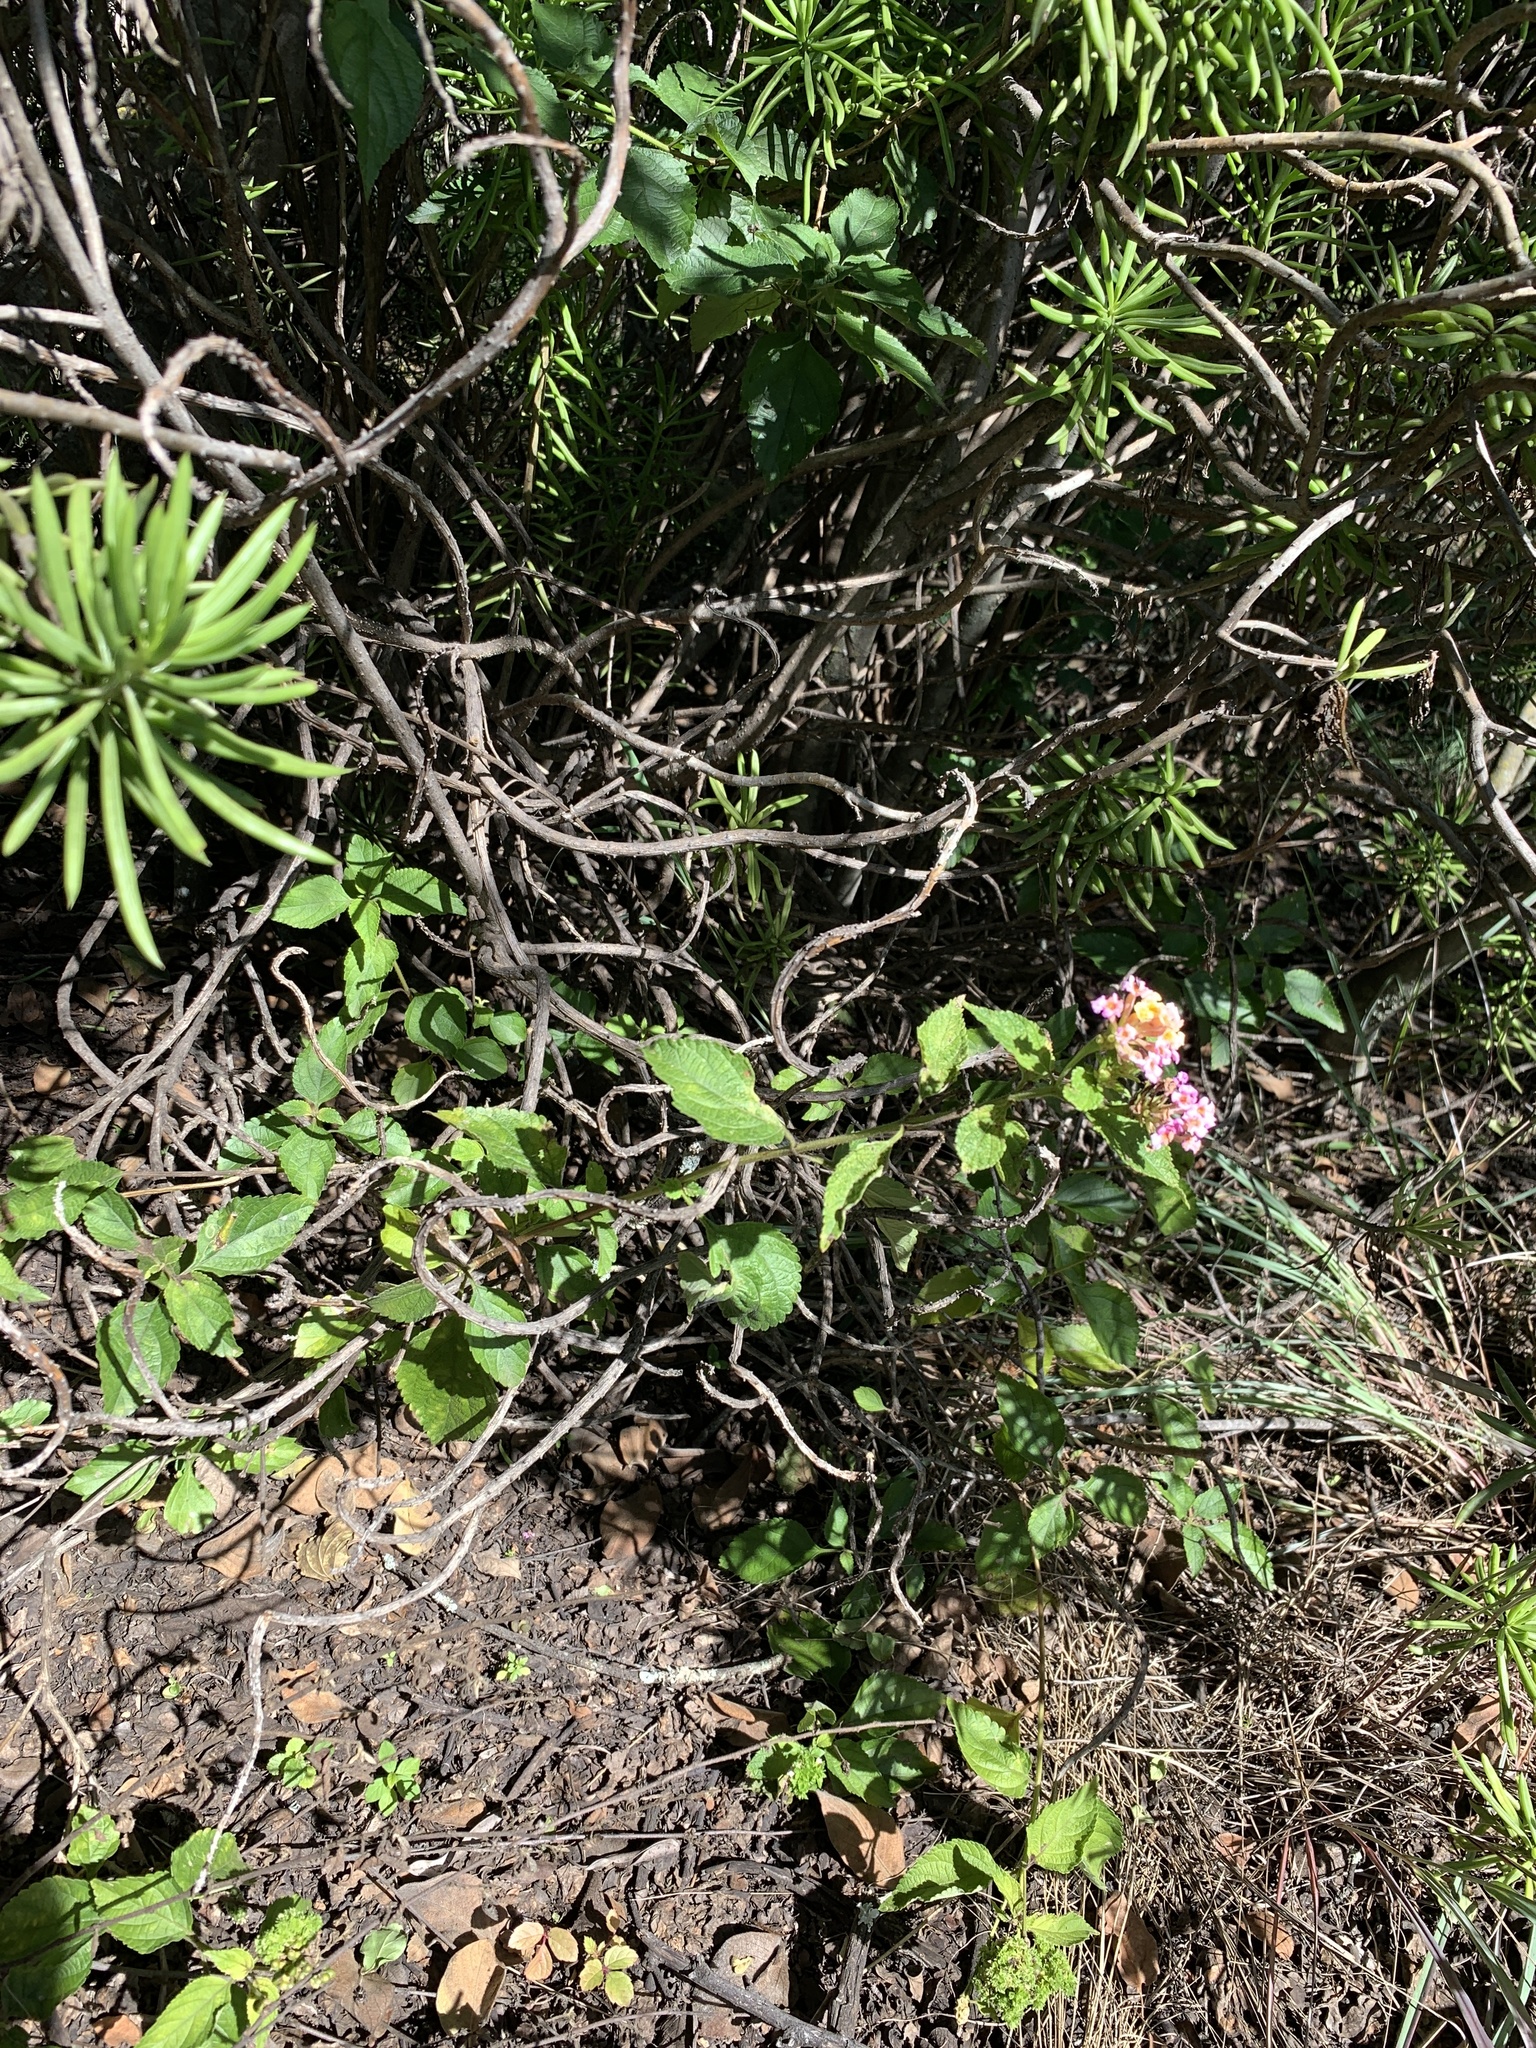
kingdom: Plantae
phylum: Tracheophyta
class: Magnoliopsida
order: Lamiales
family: Verbenaceae
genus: Lantana
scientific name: Lantana camara
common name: Lantana
